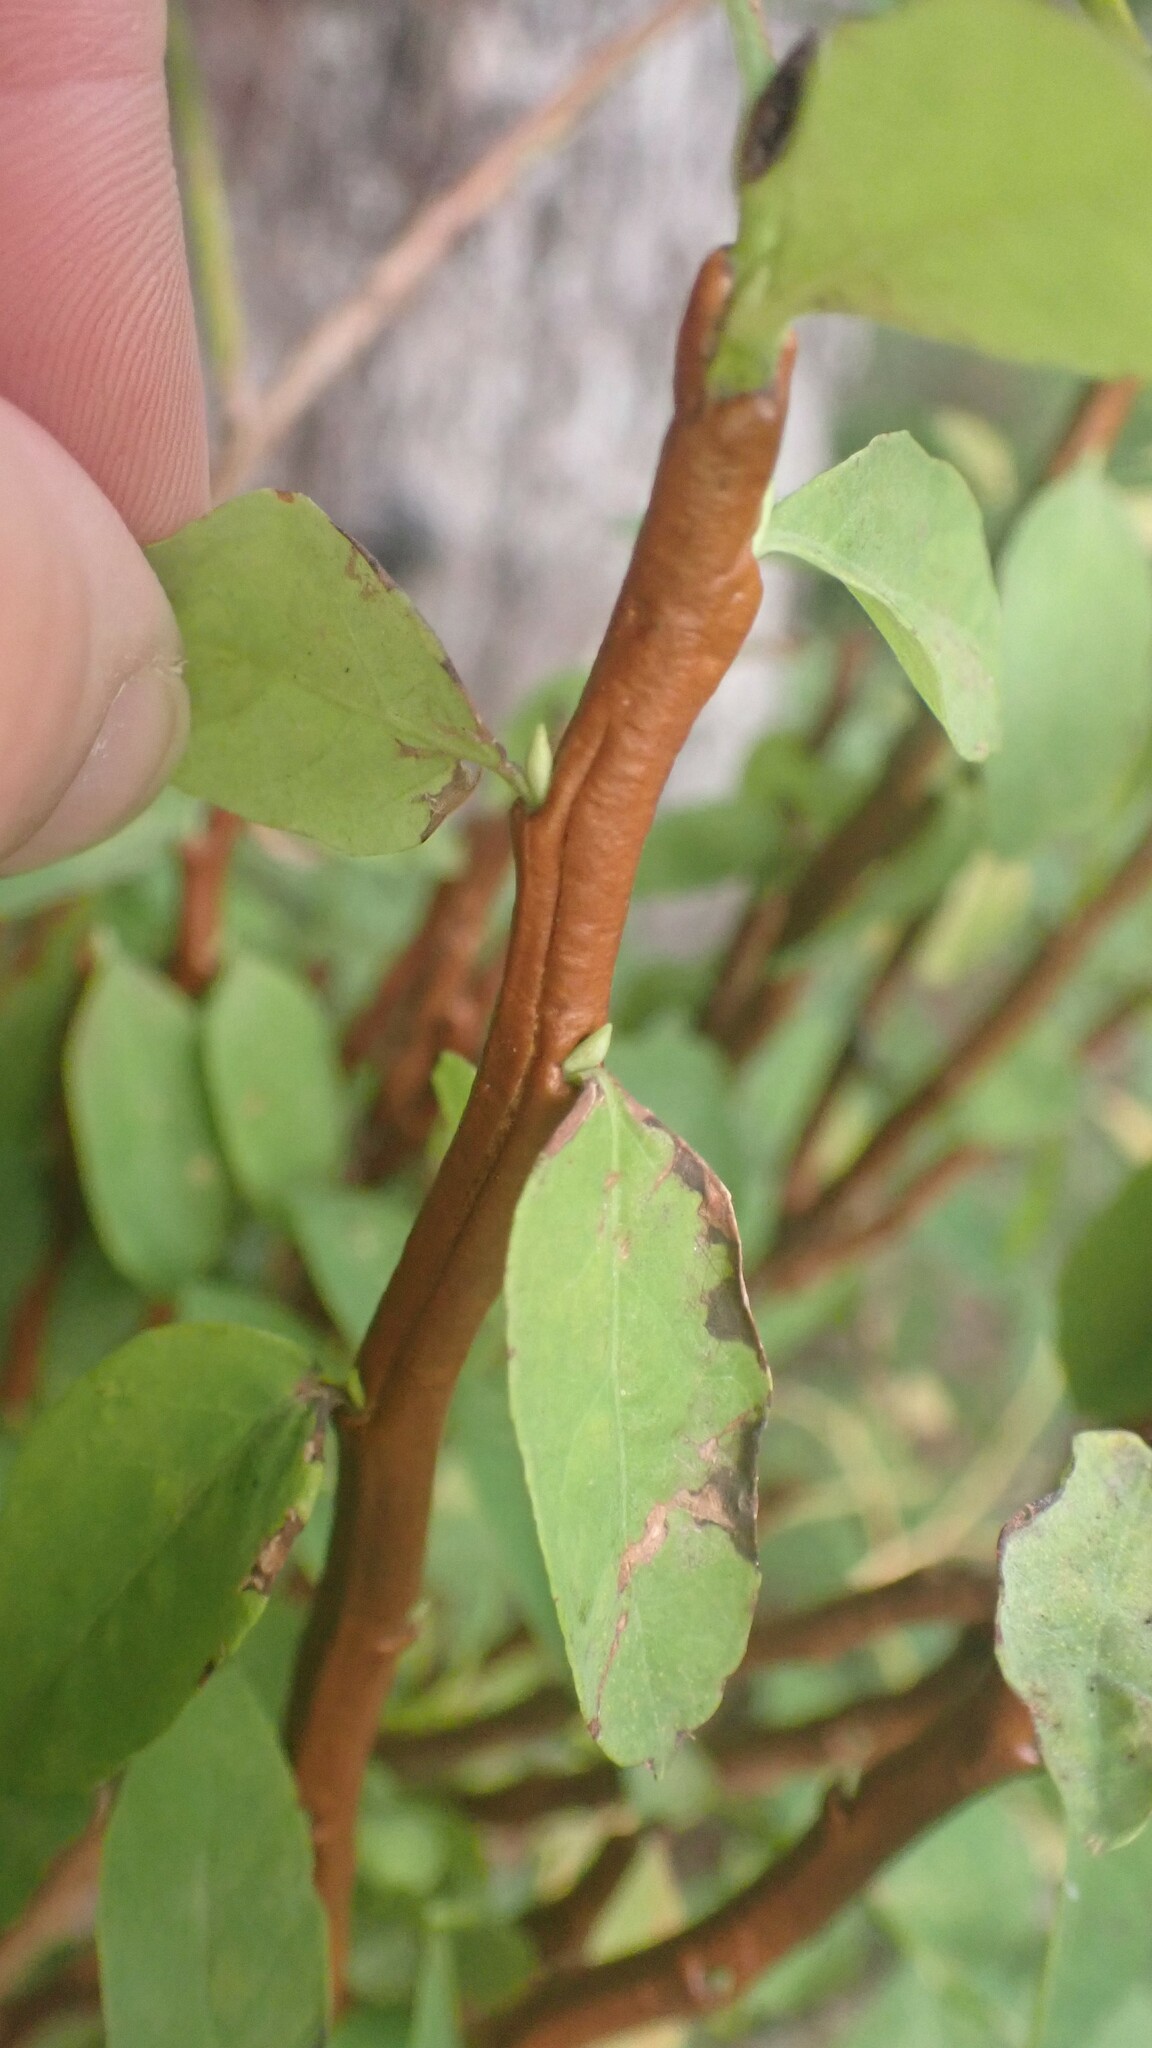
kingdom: Fungi
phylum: Basidiomycota
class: Pucciniomycetes
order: Pucciniales
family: Pucciniastraceae
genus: Calyptospora
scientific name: Calyptospora
